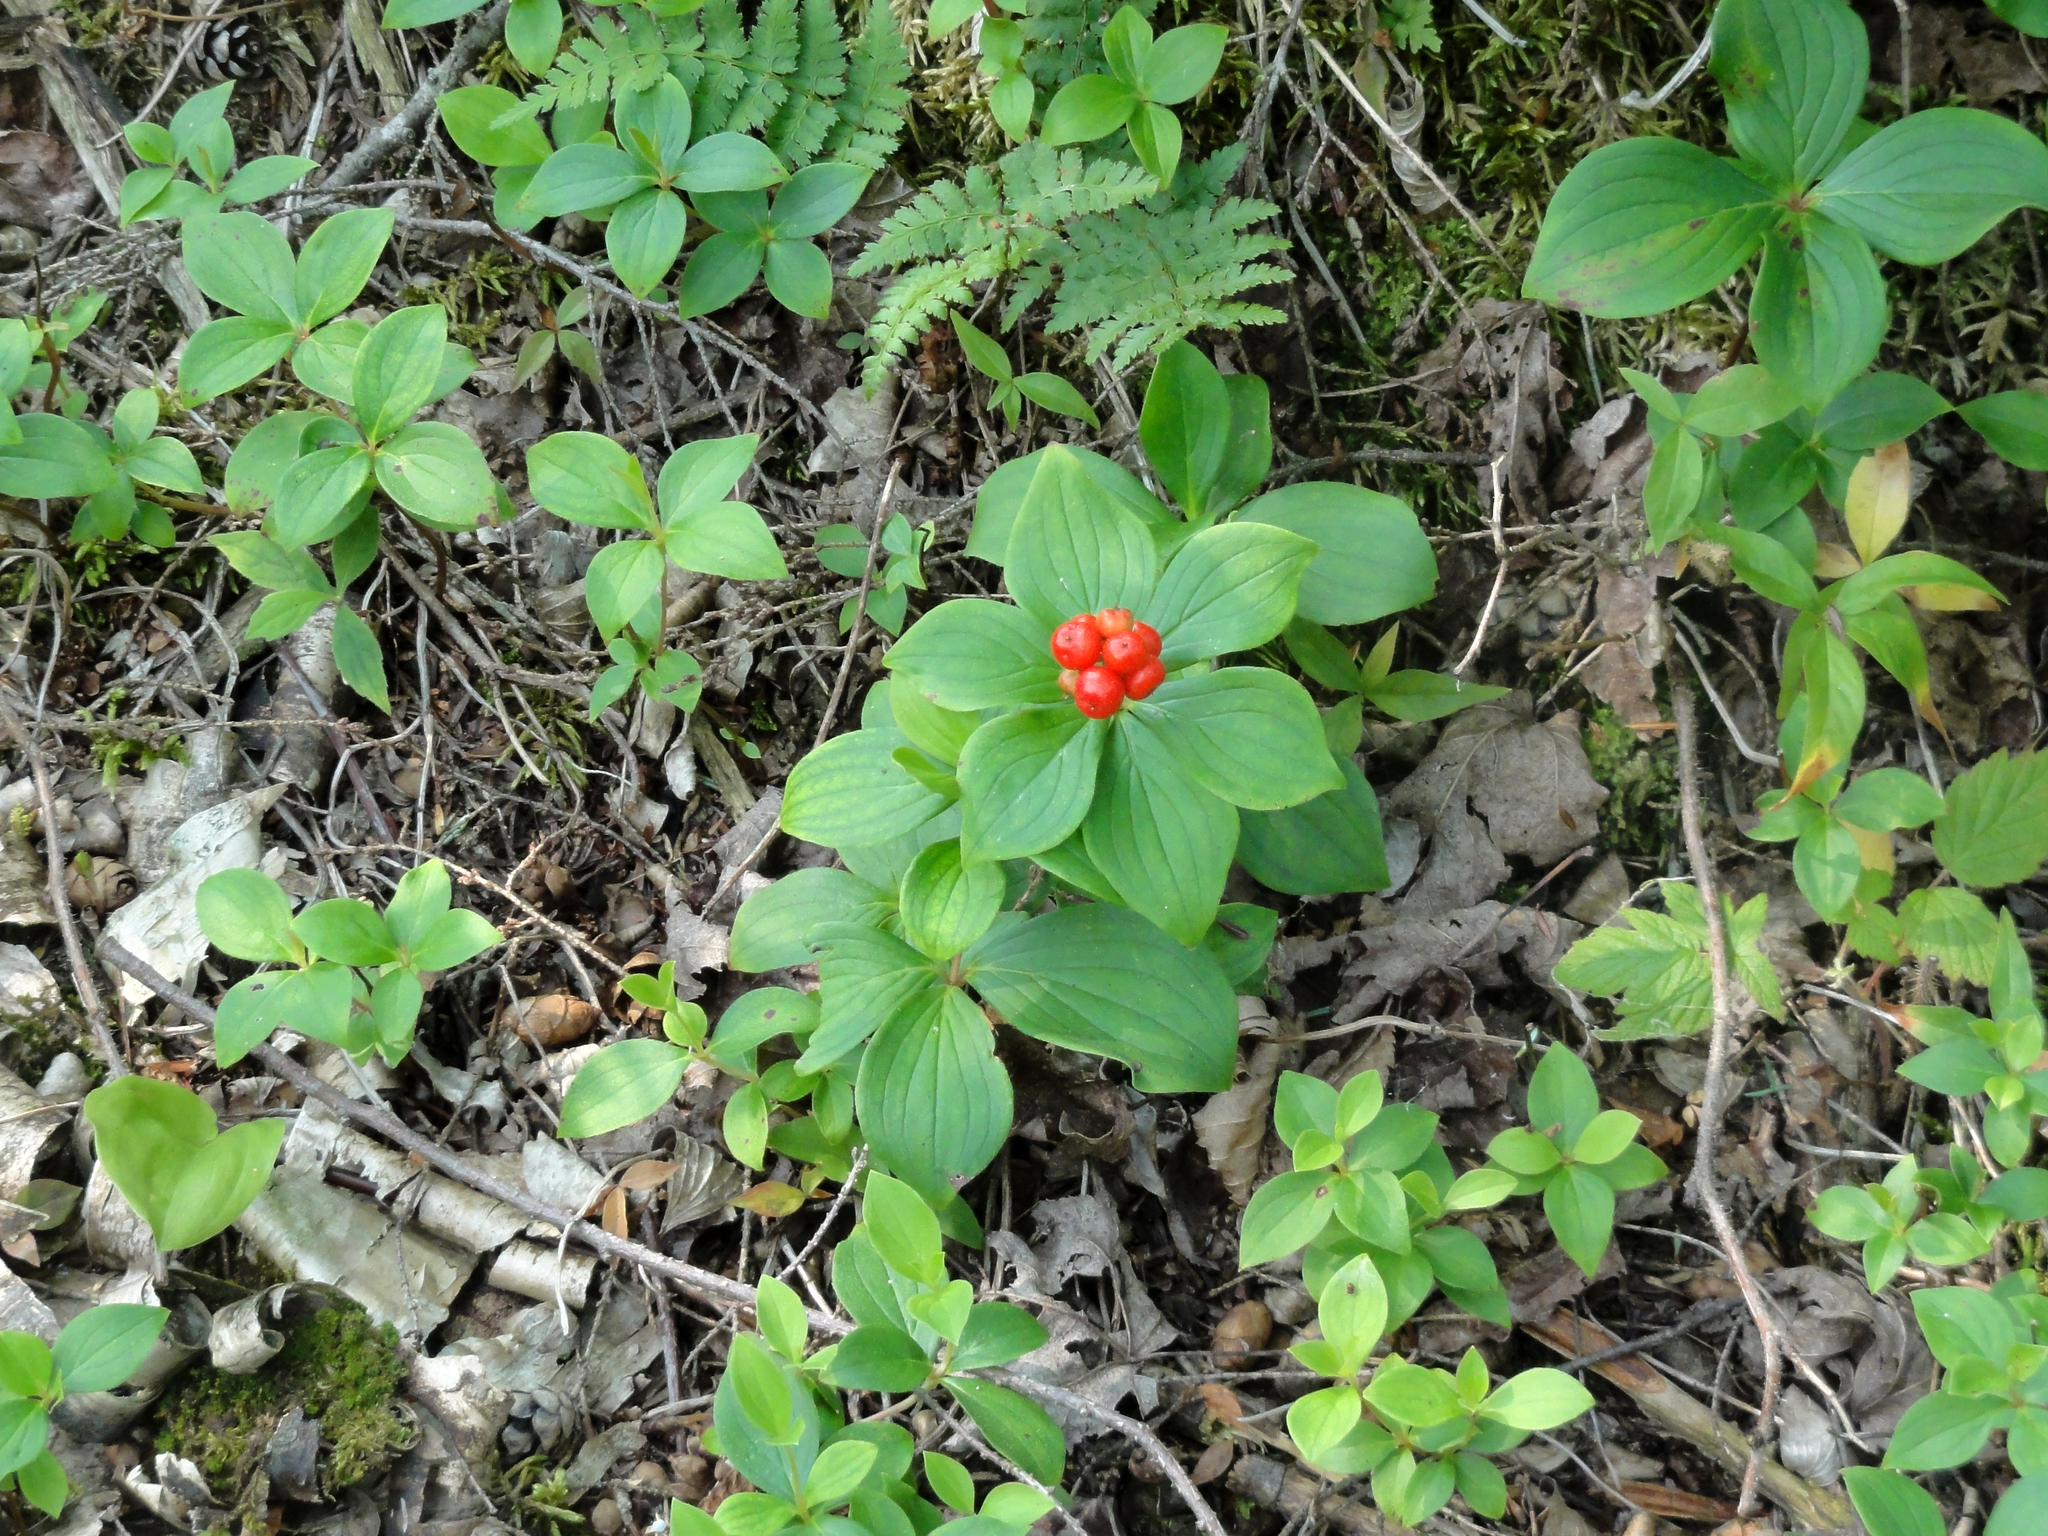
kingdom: Plantae
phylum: Tracheophyta
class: Magnoliopsida
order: Cornales
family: Cornaceae
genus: Cornus
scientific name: Cornus canadensis
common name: Creeping dogwood
